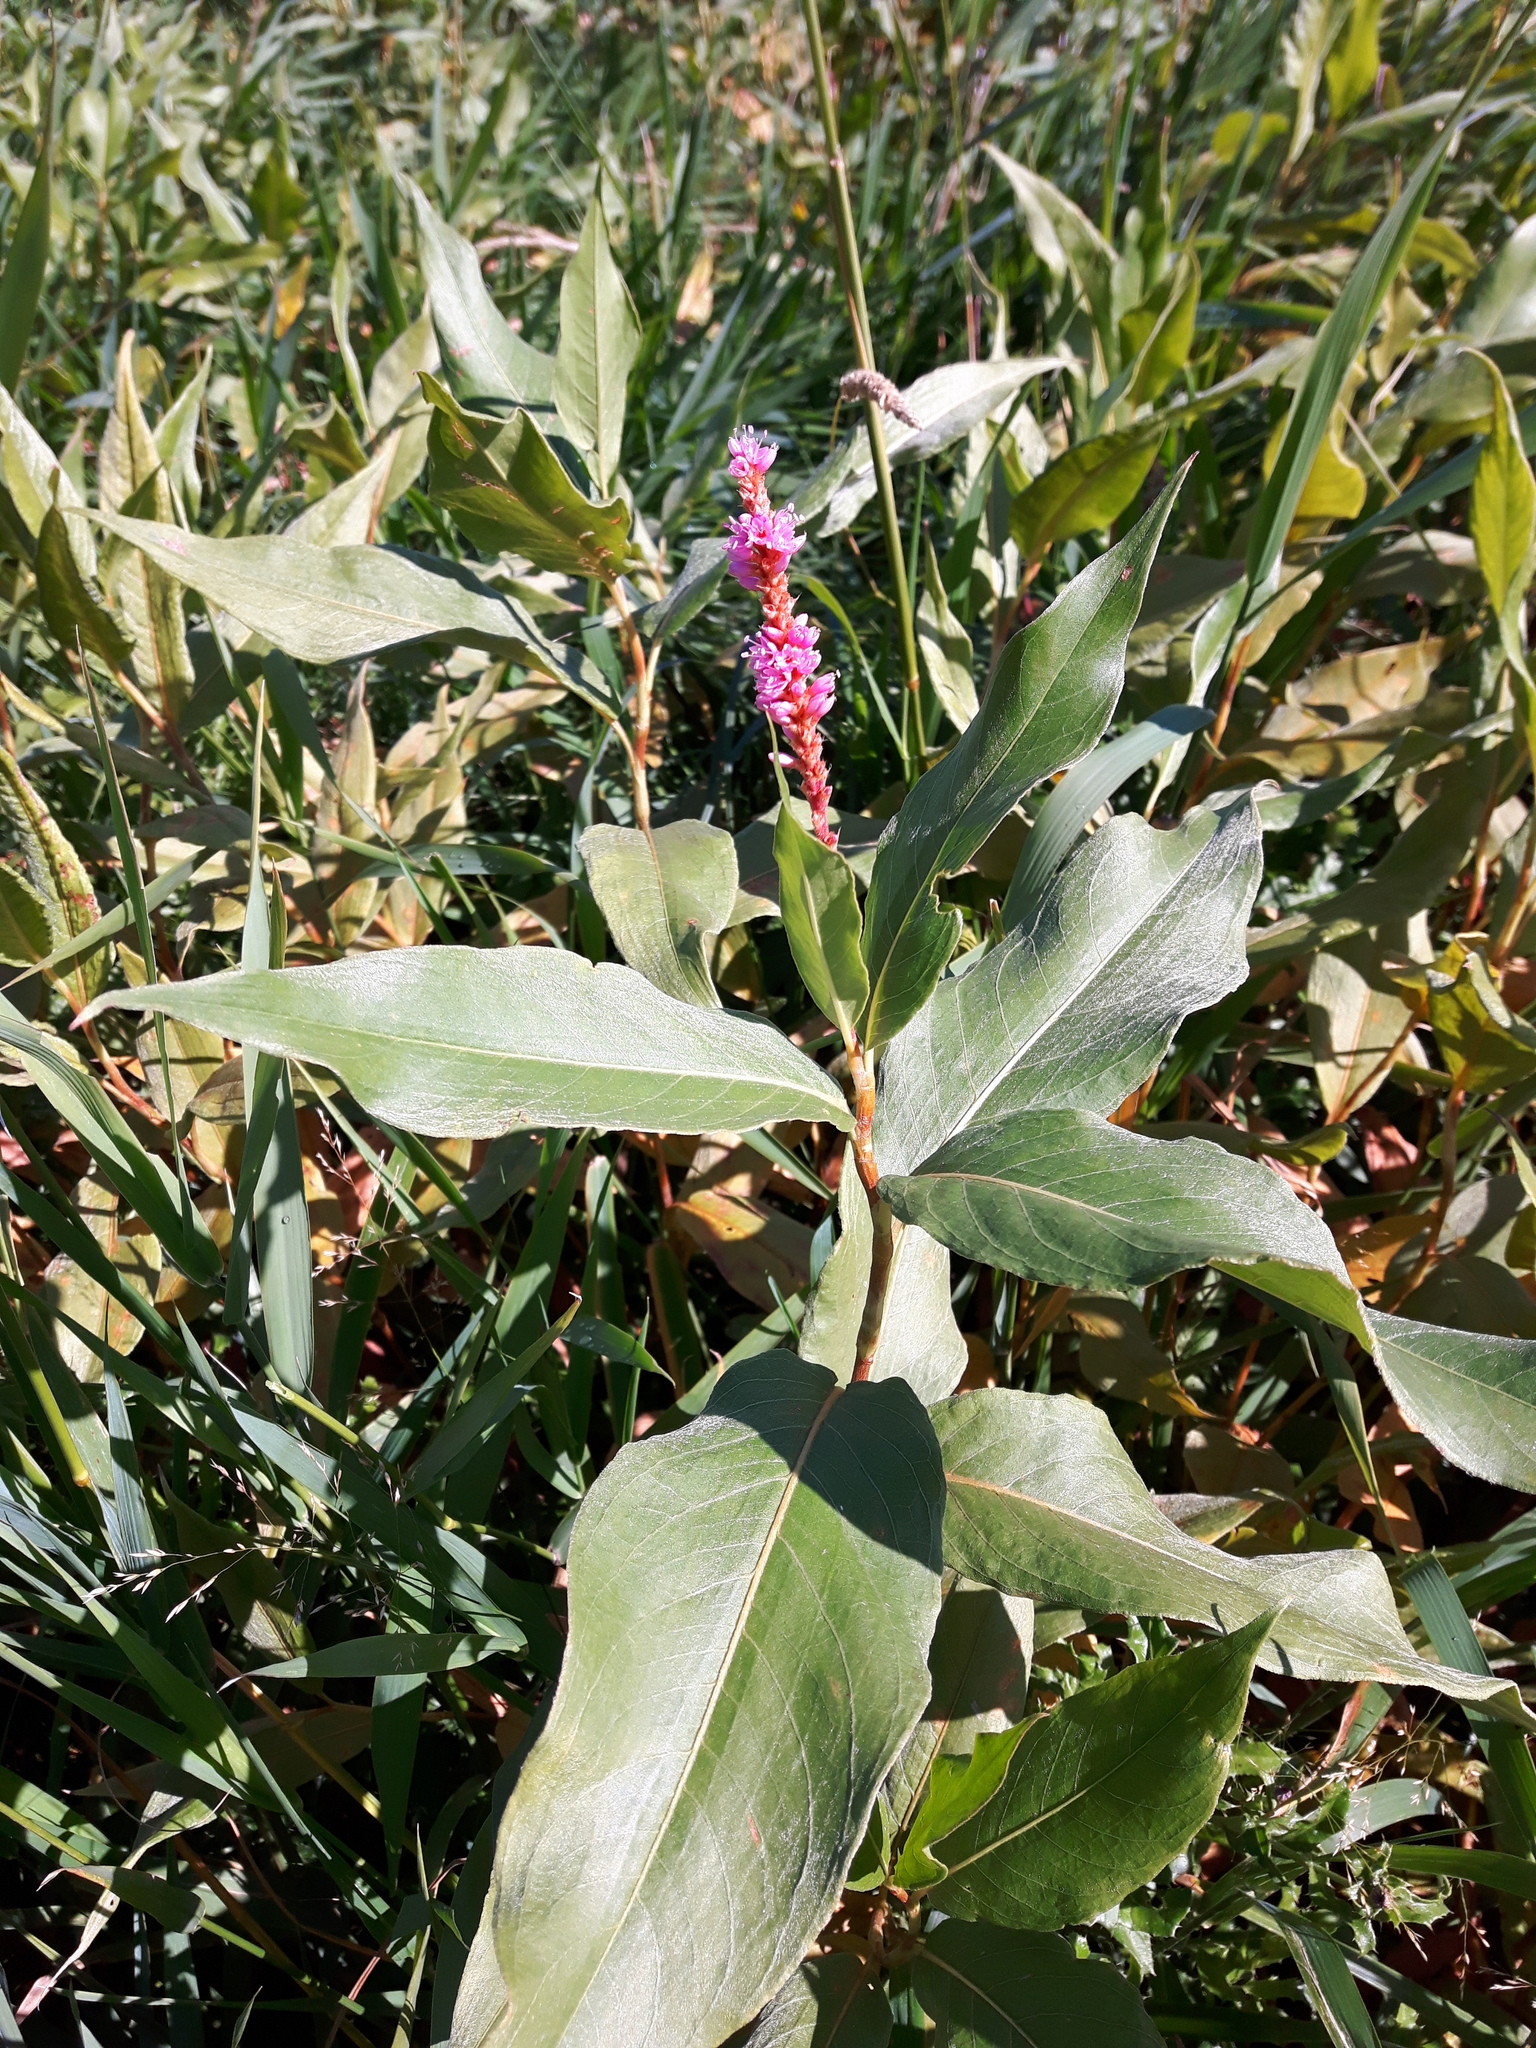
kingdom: Plantae
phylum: Tracheophyta
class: Magnoliopsida
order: Caryophyllales
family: Polygonaceae
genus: Persicaria
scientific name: Persicaria amphibia
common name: Amphibious bistort
